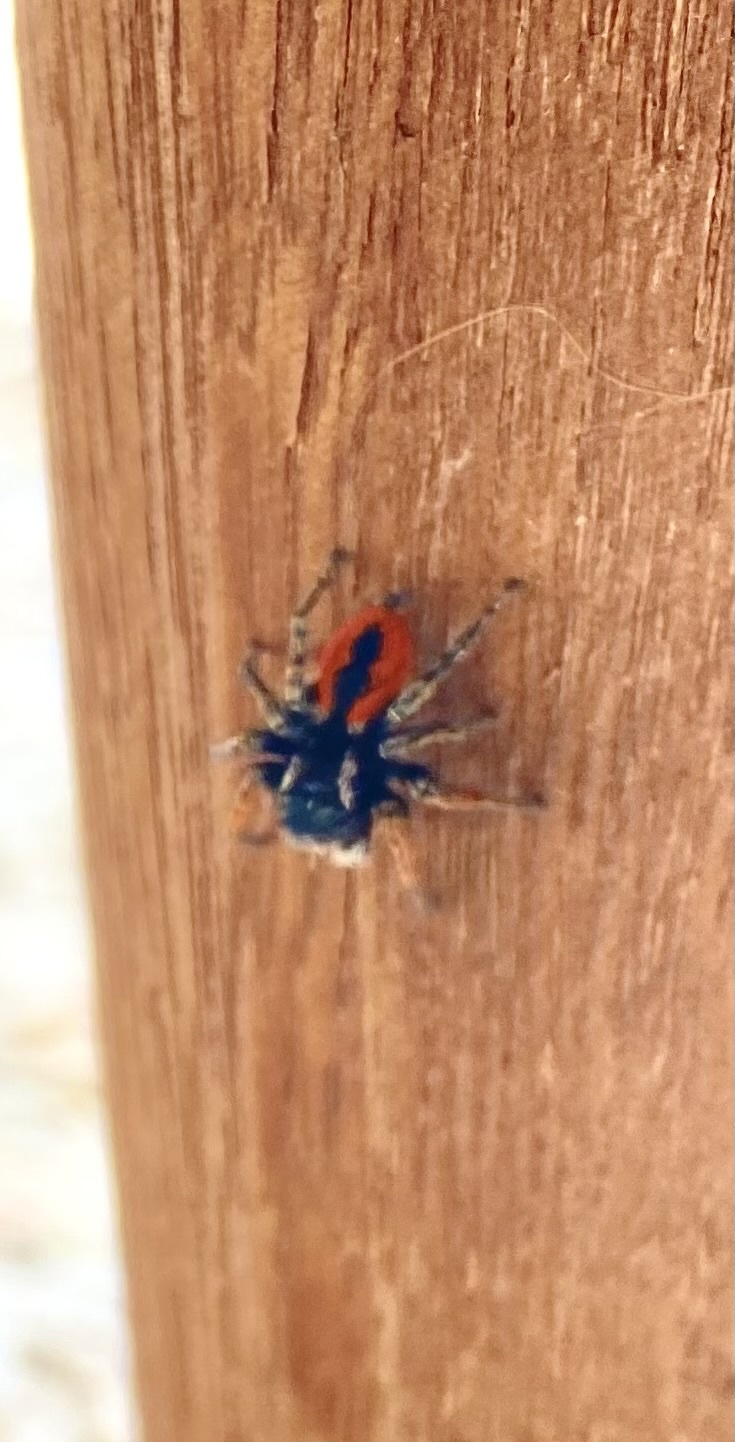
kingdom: Animalia
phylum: Arthropoda
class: Arachnida
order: Araneae
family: Salticidae
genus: Philaeus
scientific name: Philaeus chrysops
